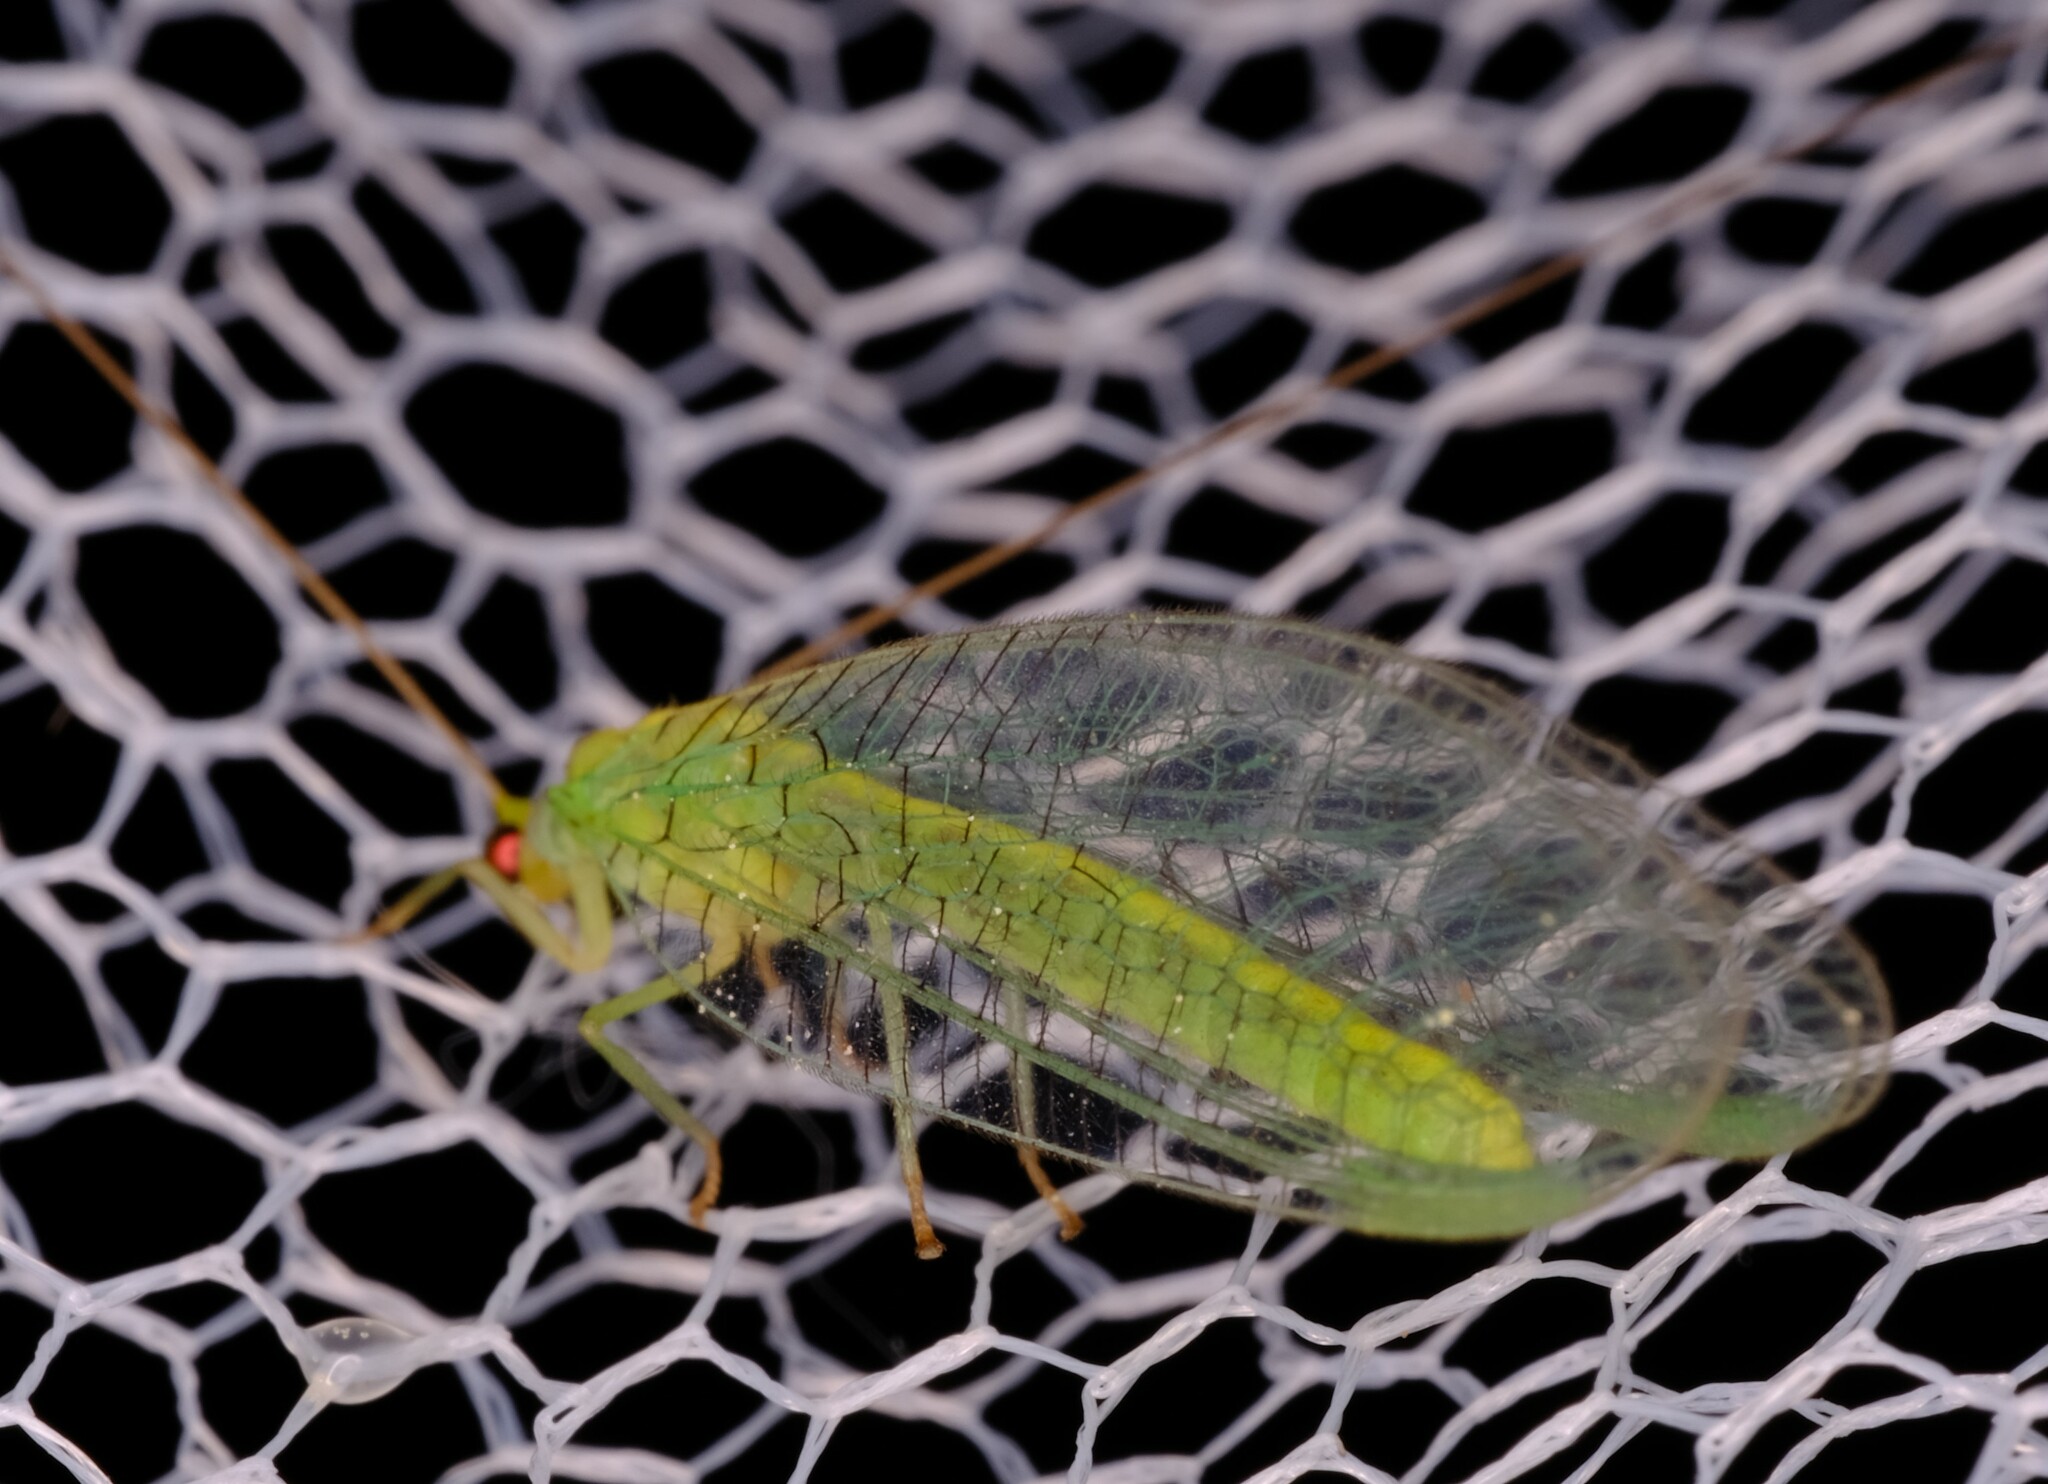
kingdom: Animalia
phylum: Arthropoda
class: Insecta
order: Neuroptera
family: Chrysopidae
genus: Pseudomallada
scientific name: Pseudomallada edwardsi
